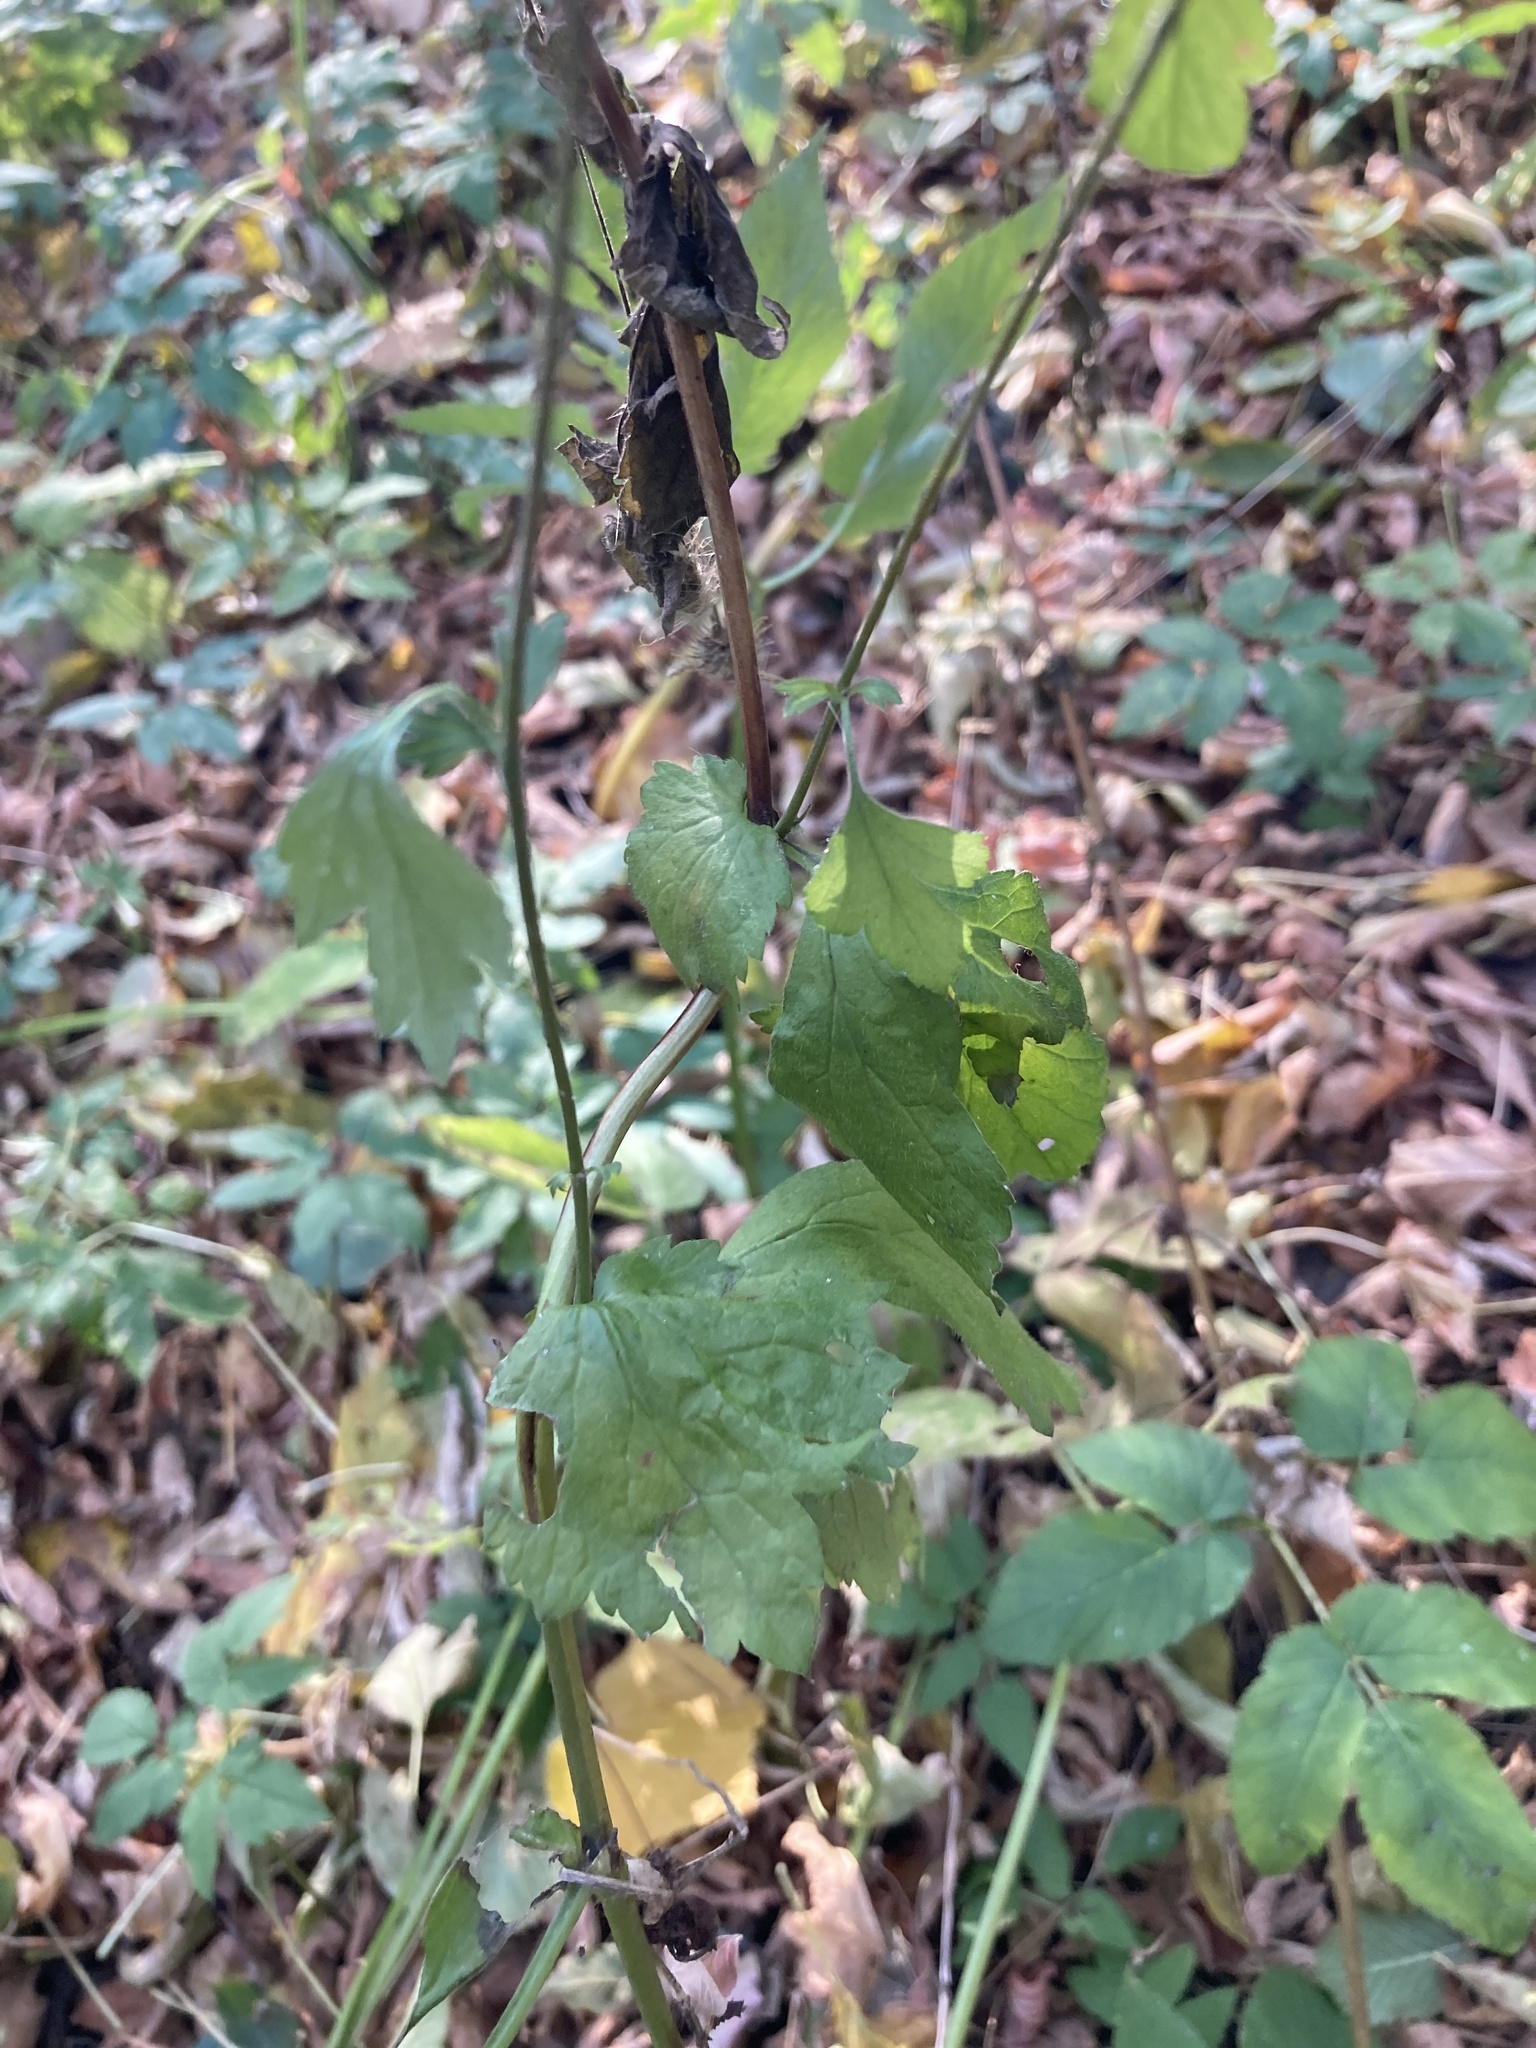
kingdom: Plantae
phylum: Tracheophyta
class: Magnoliopsida
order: Rosales
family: Rosaceae
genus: Geum
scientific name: Geum urbanum
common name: Wood avens
